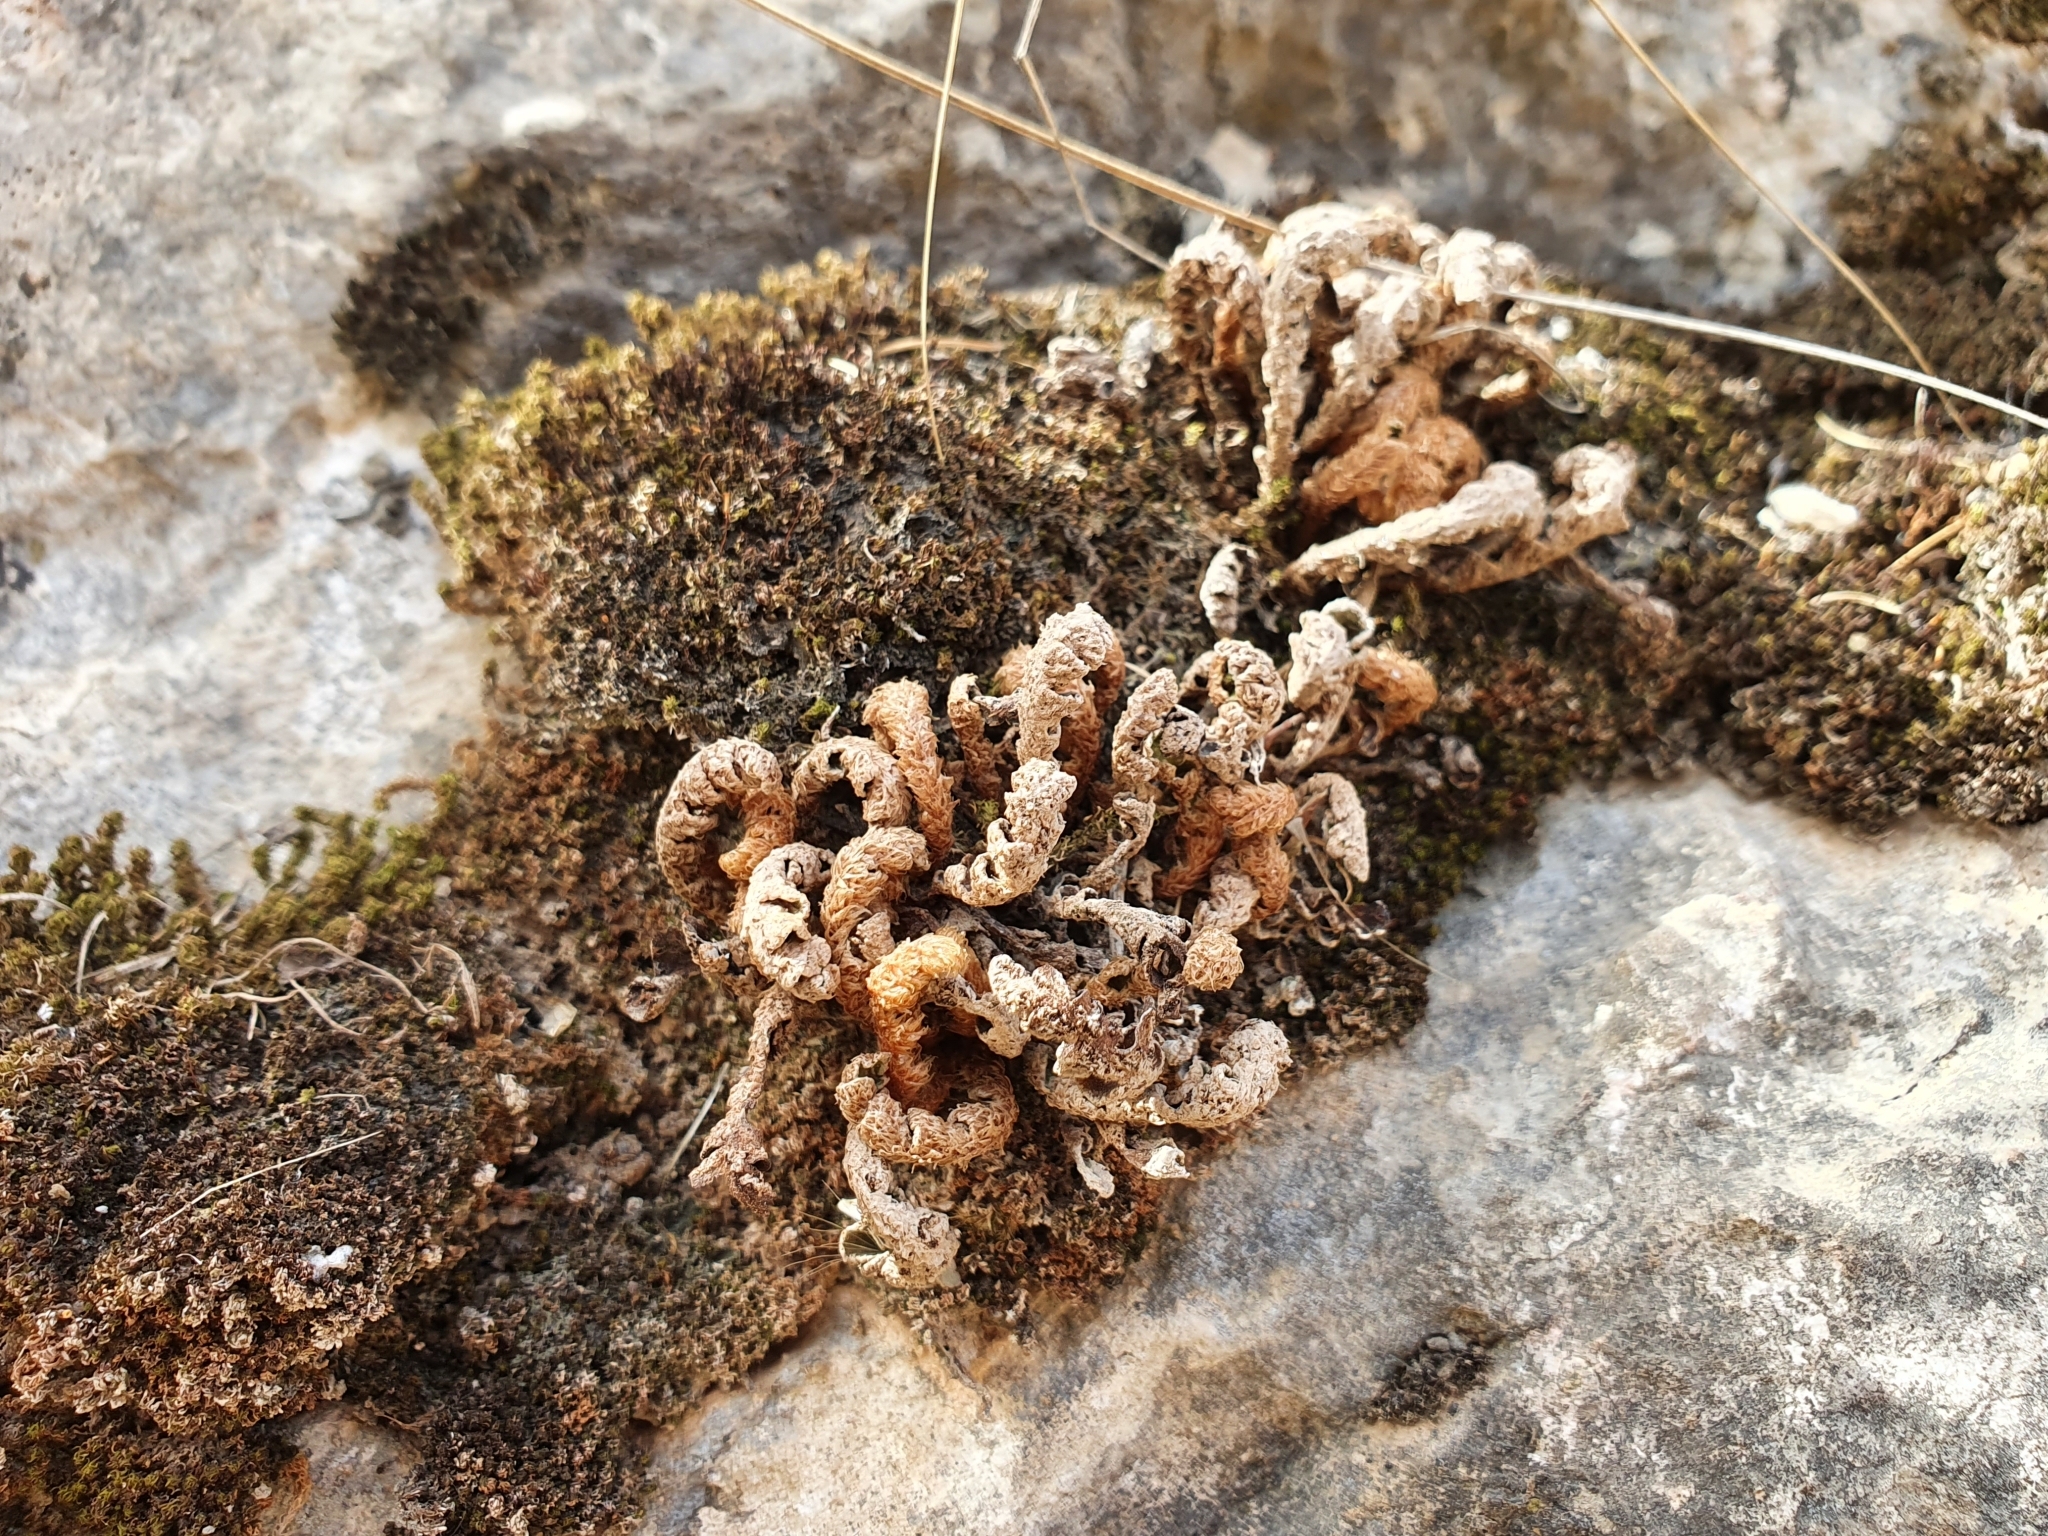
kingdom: Plantae
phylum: Tracheophyta
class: Polypodiopsida
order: Polypodiales
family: Aspleniaceae
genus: Asplenium
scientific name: Asplenium ceterach
